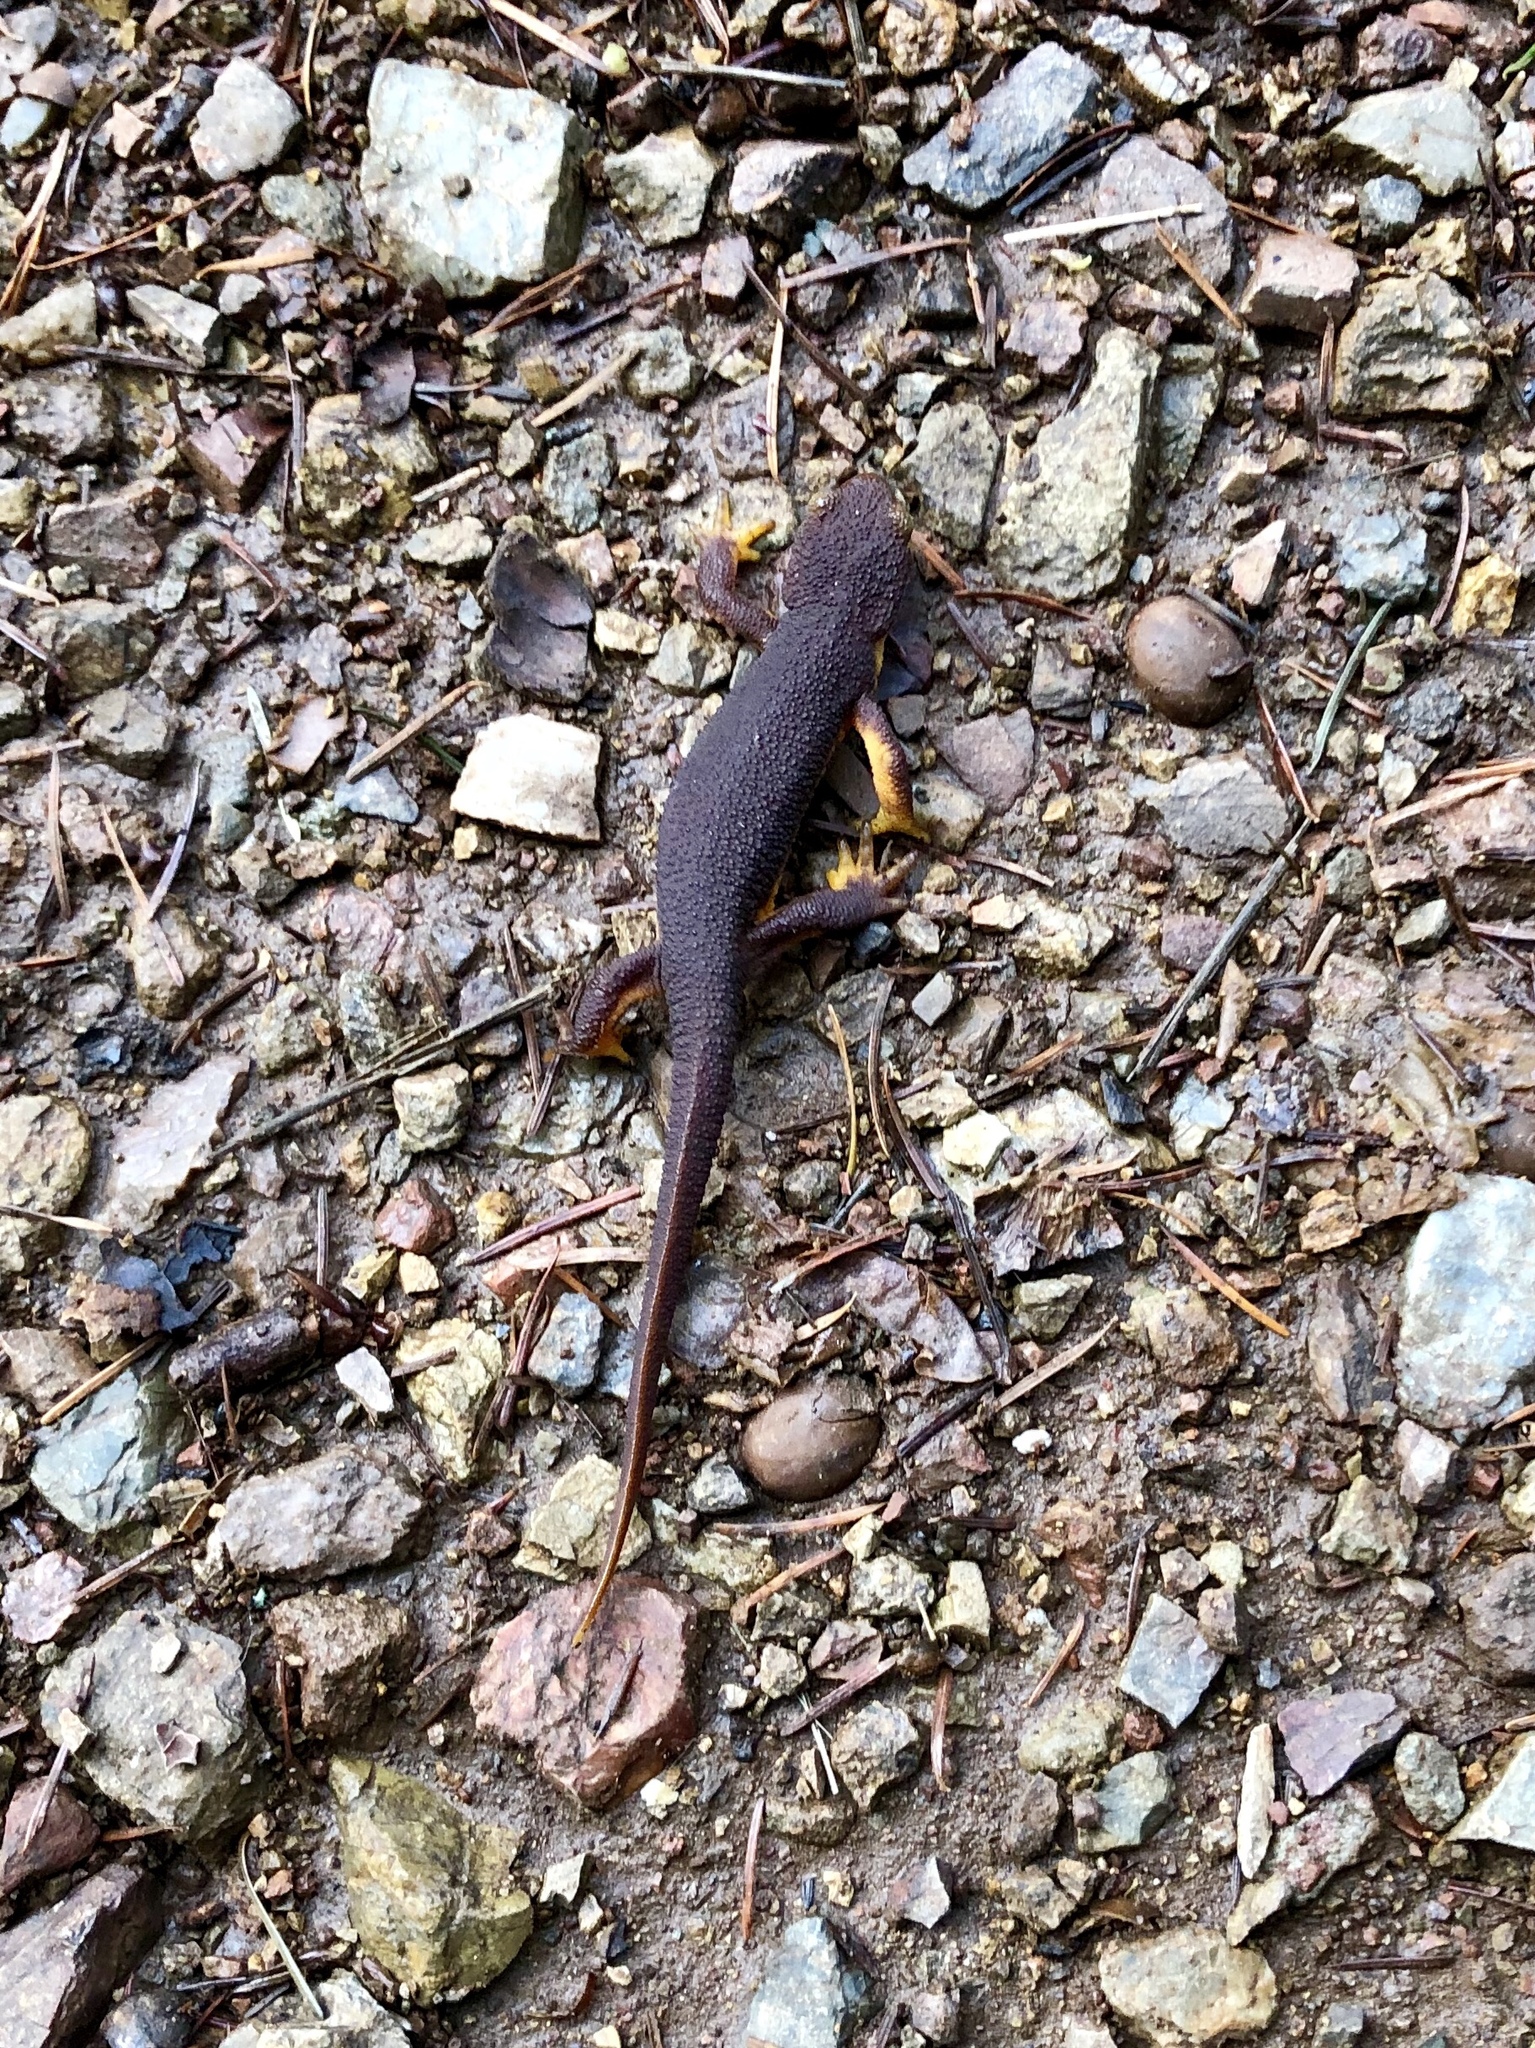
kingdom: Animalia
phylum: Chordata
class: Amphibia
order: Caudata
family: Salamandridae
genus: Taricha
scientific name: Taricha torosa
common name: California newt
